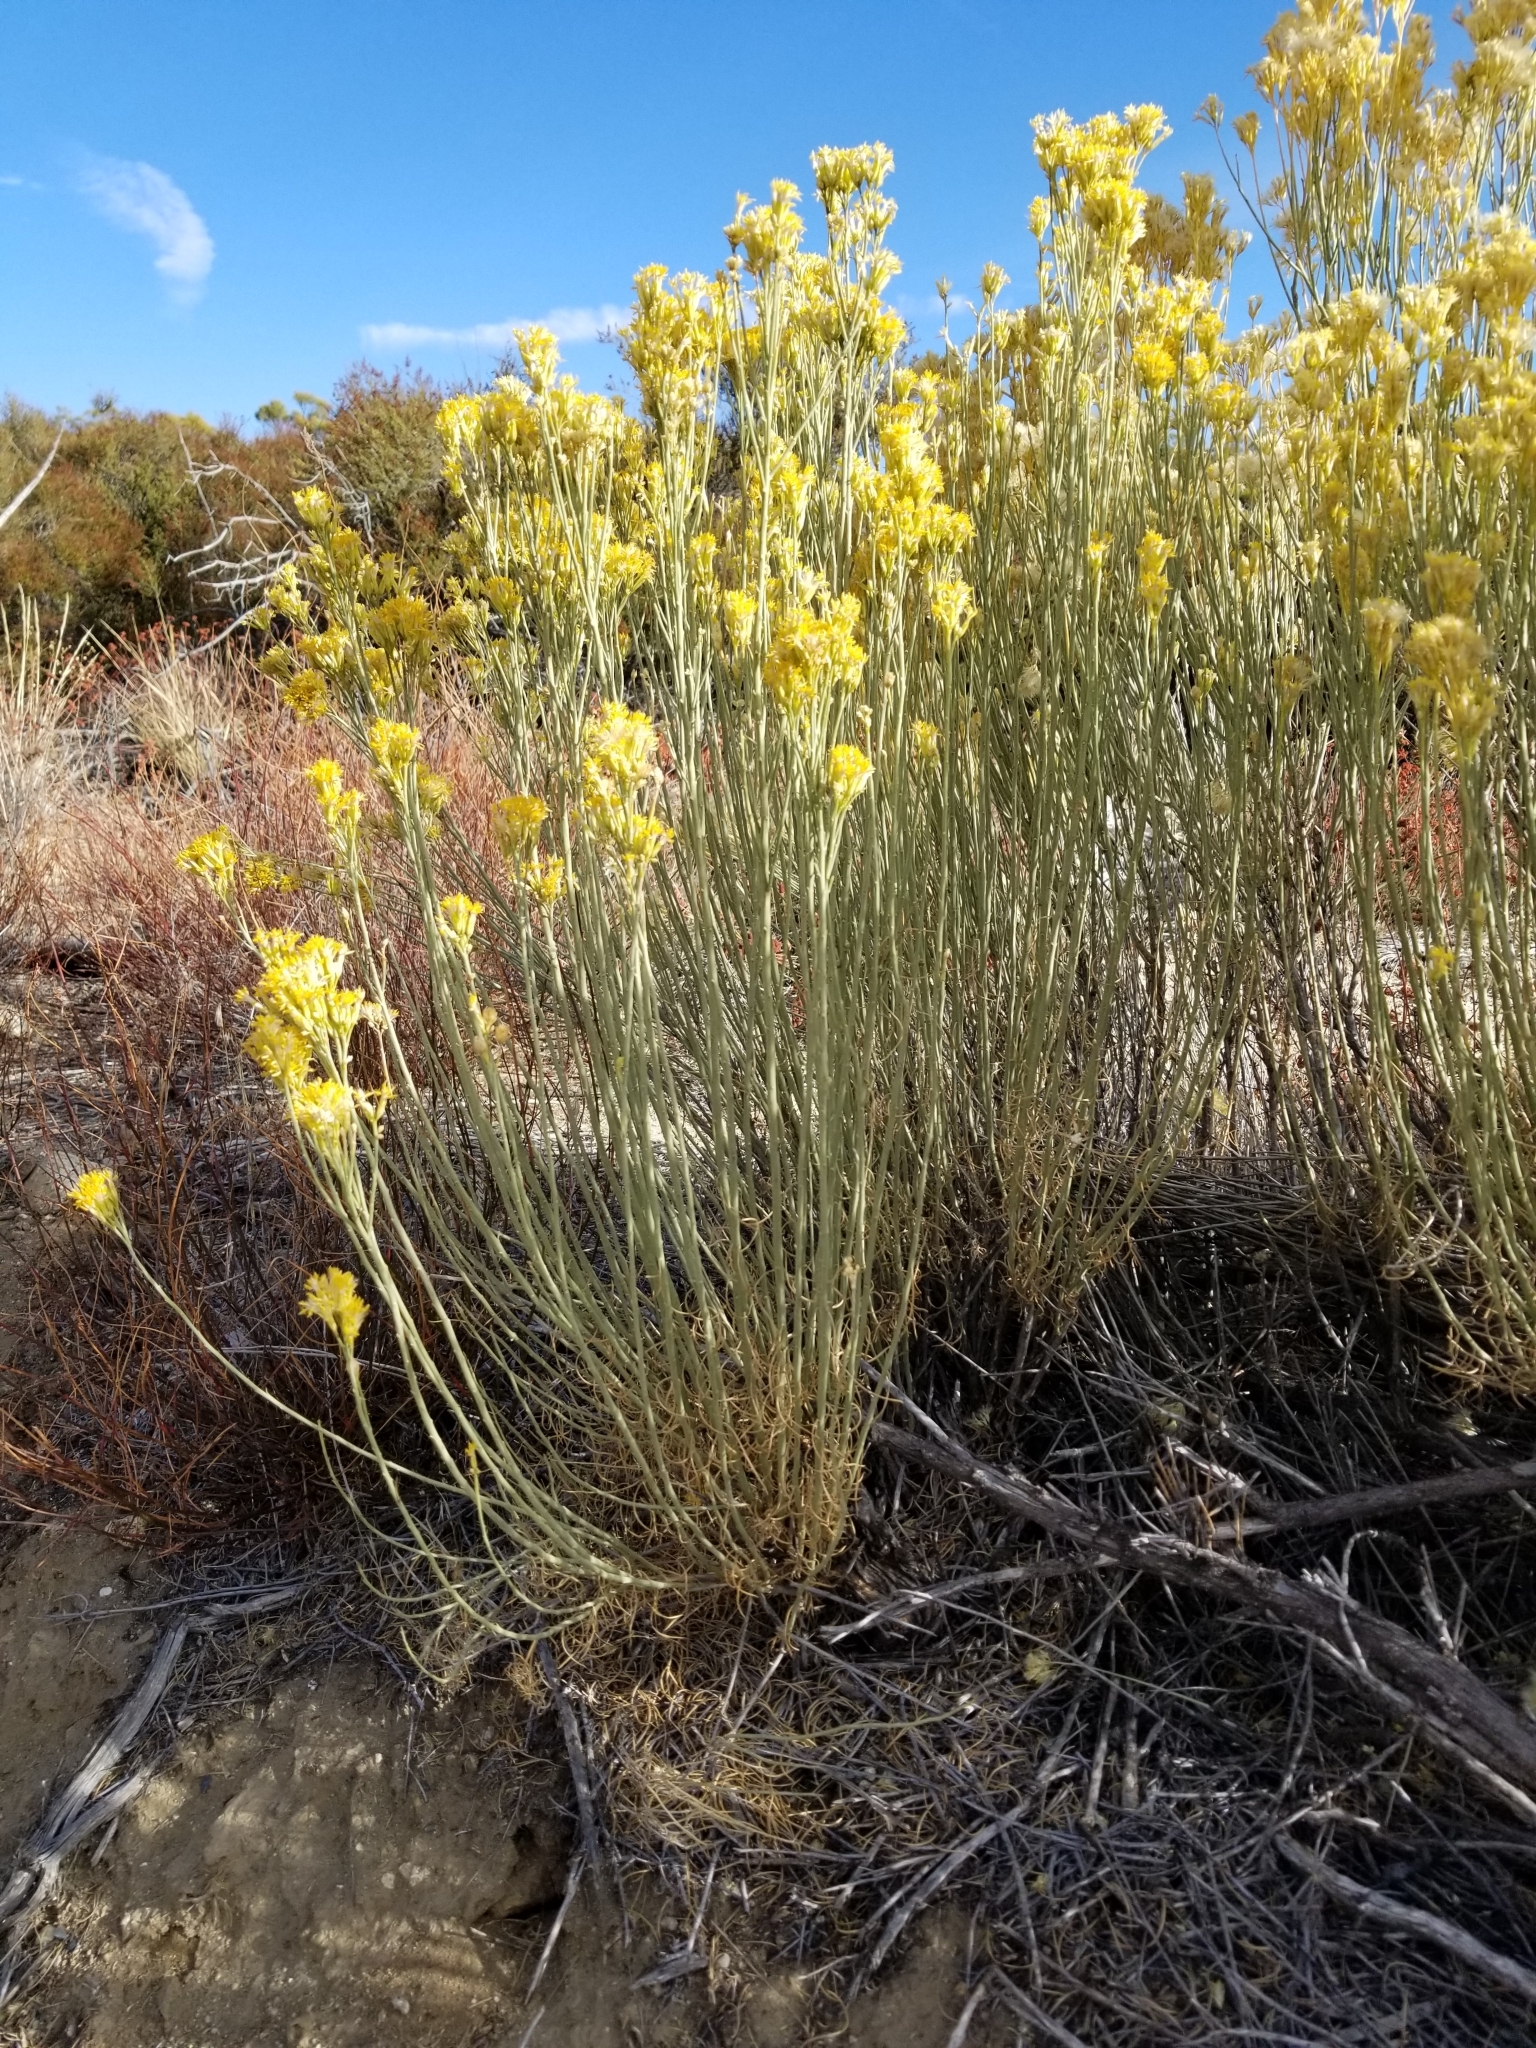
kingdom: Plantae
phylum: Tracheophyta
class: Magnoliopsida
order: Asterales
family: Asteraceae
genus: Ericameria
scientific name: Ericameria nauseosa
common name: Rubber rabbitbrush
